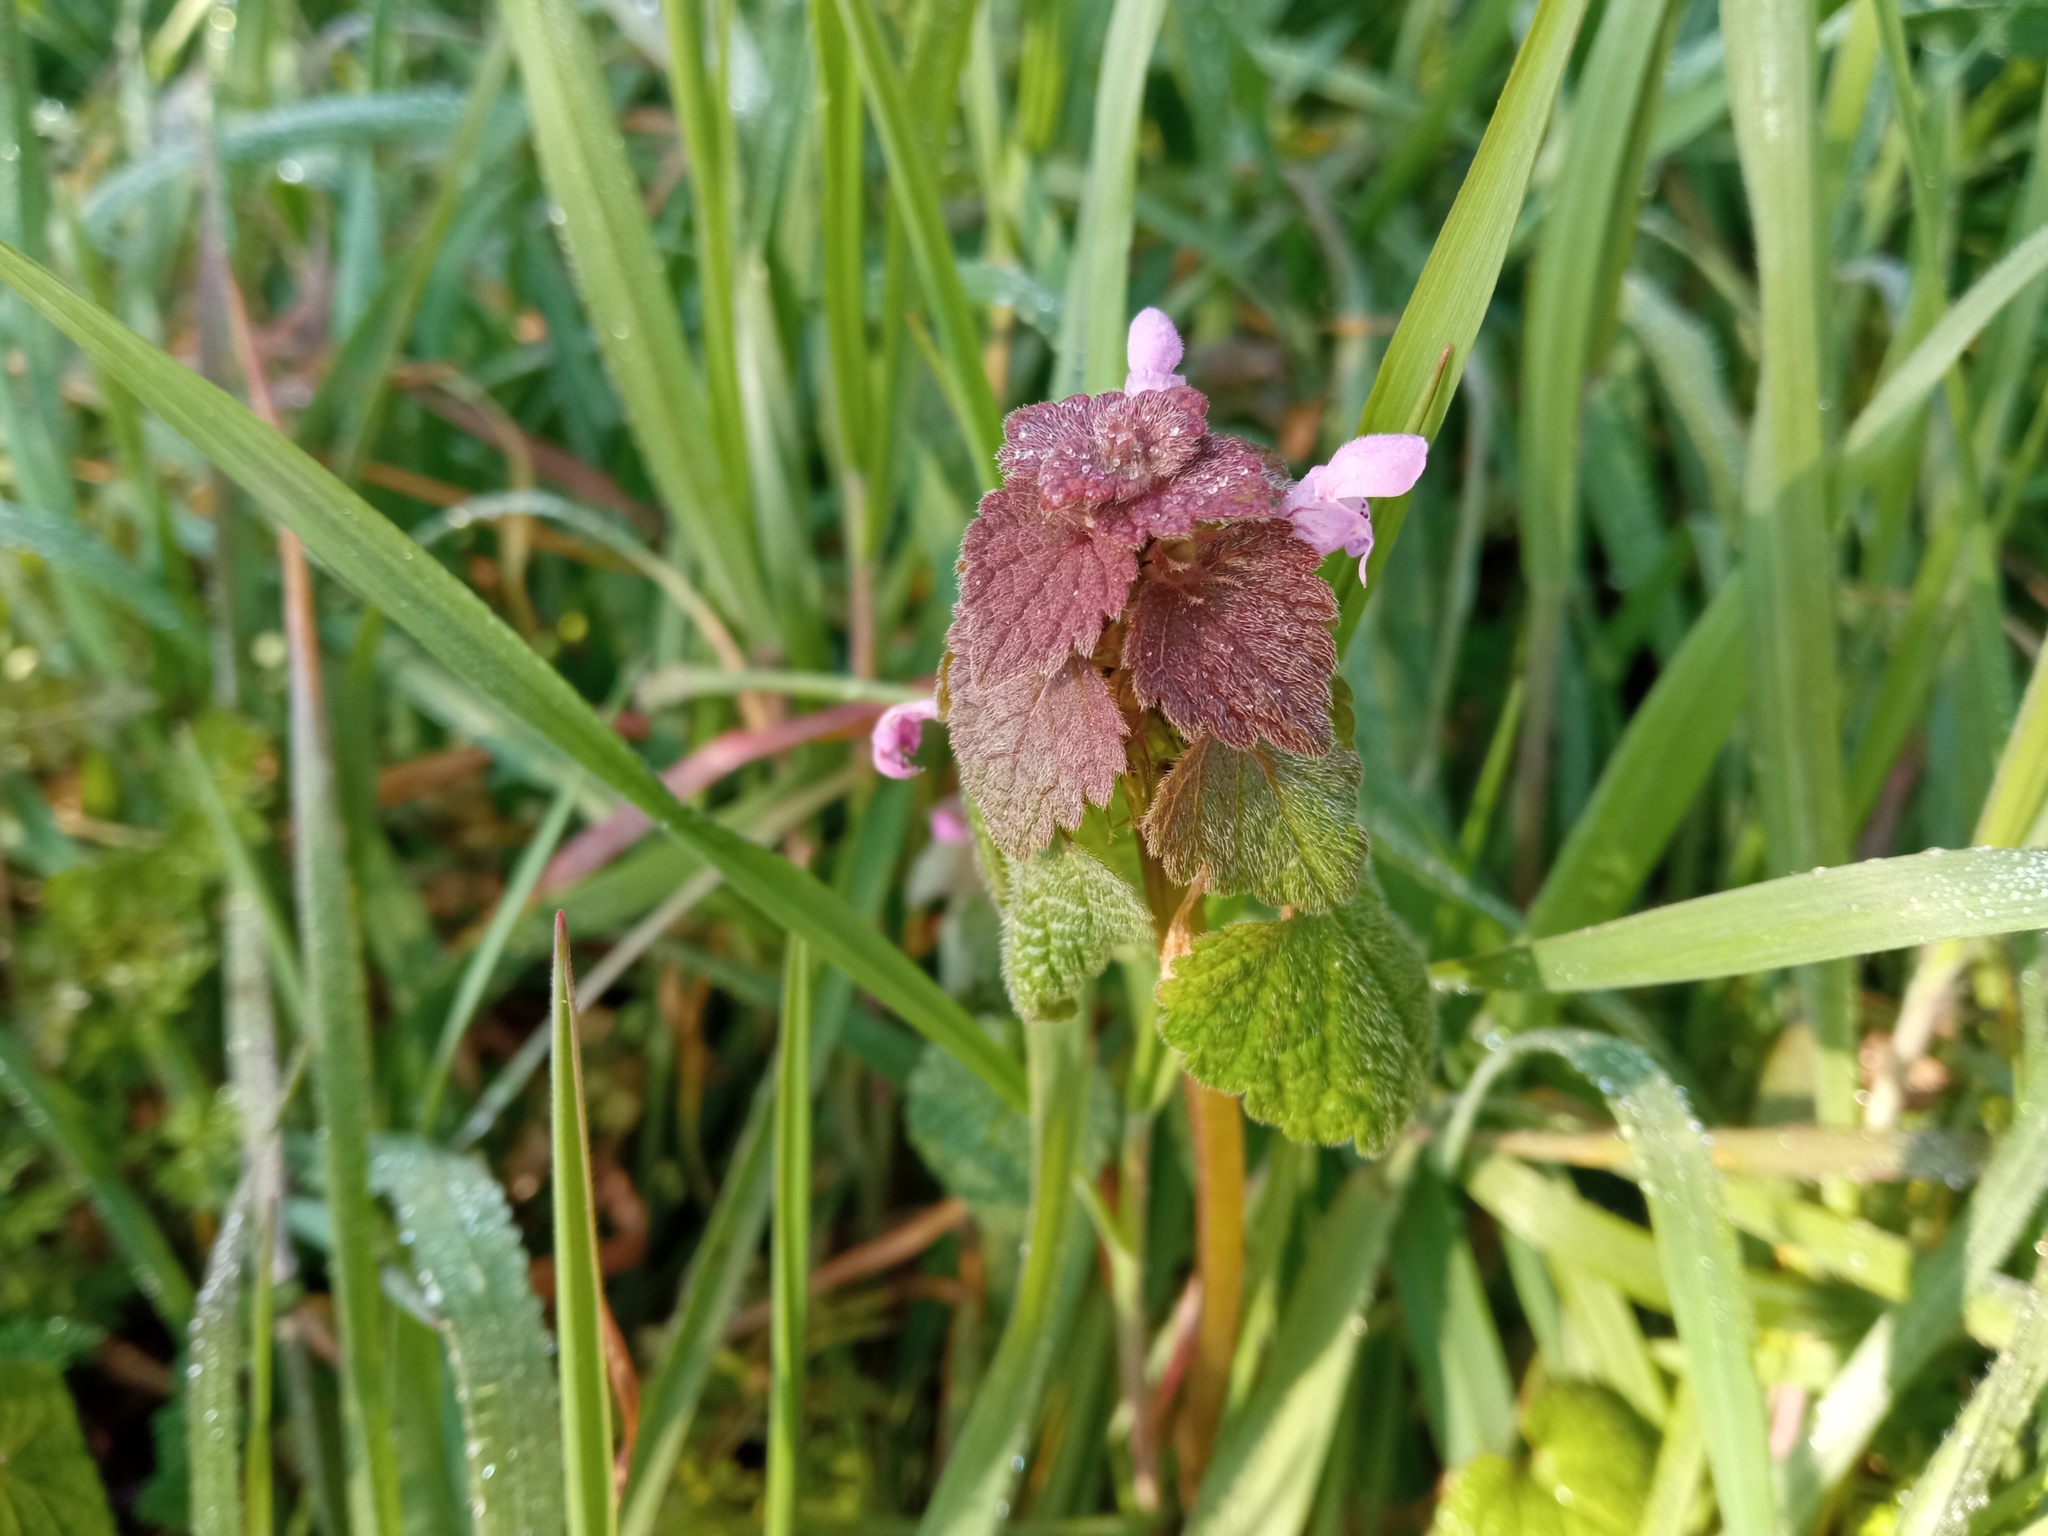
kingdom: Plantae
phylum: Tracheophyta
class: Magnoliopsida
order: Lamiales
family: Lamiaceae
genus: Lamium
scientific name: Lamium purpureum
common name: Red dead-nettle
